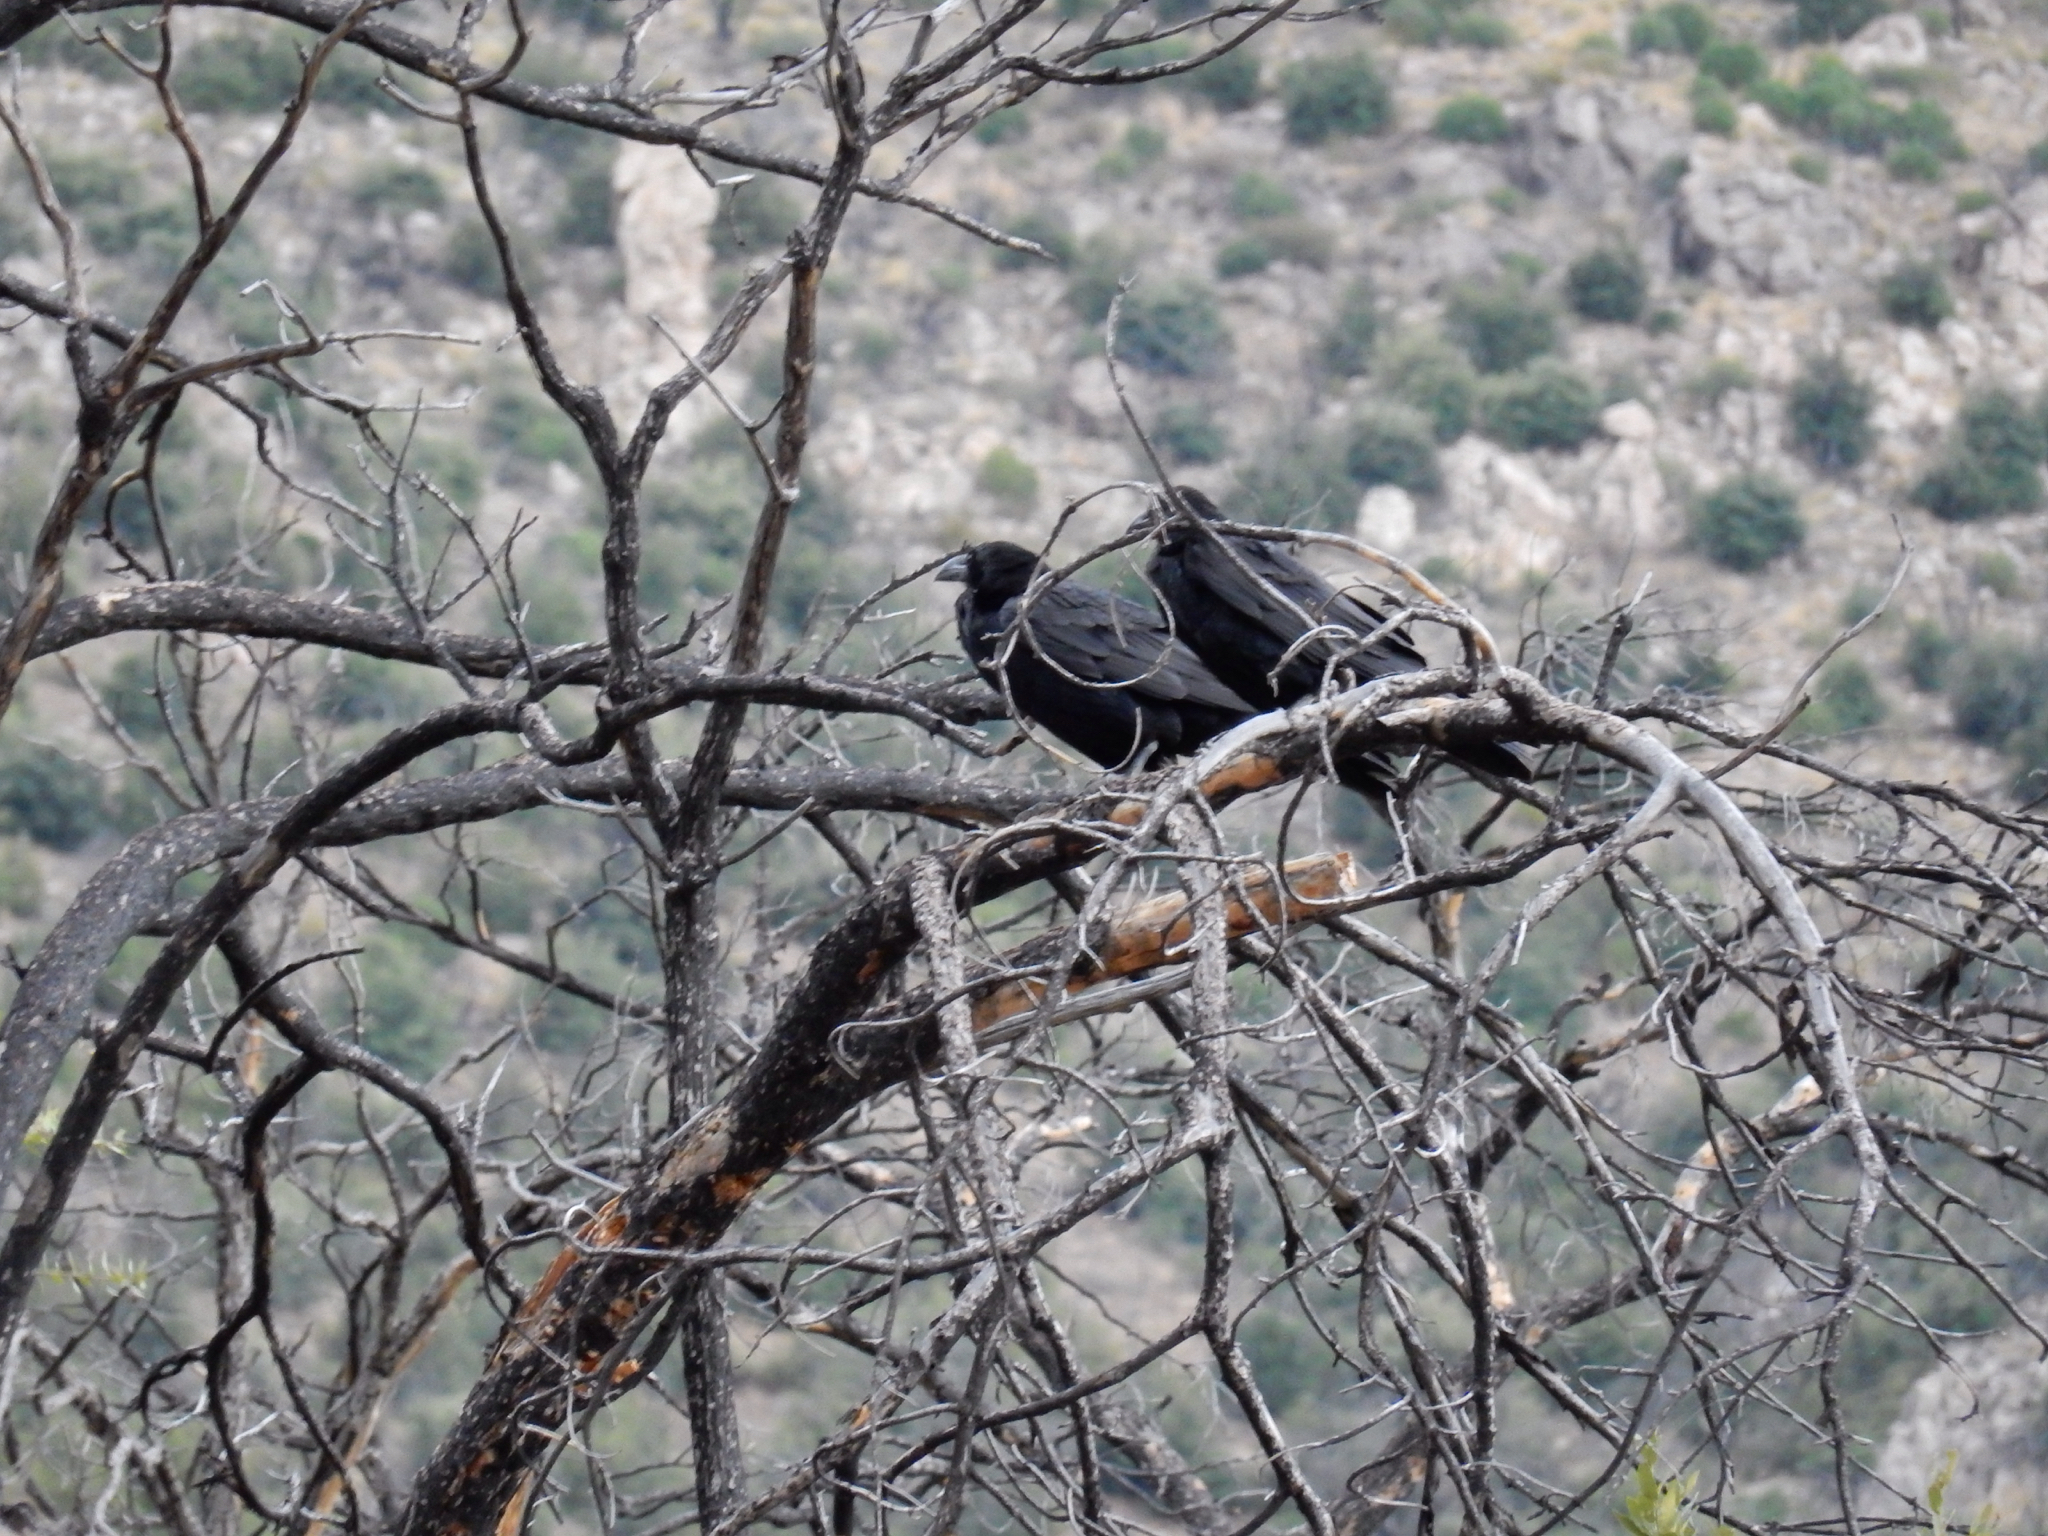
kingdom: Animalia
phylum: Chordata
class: Aves
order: Passeriformes
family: Corvidae
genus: Corvus
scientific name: Corvus corax
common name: Common raven
